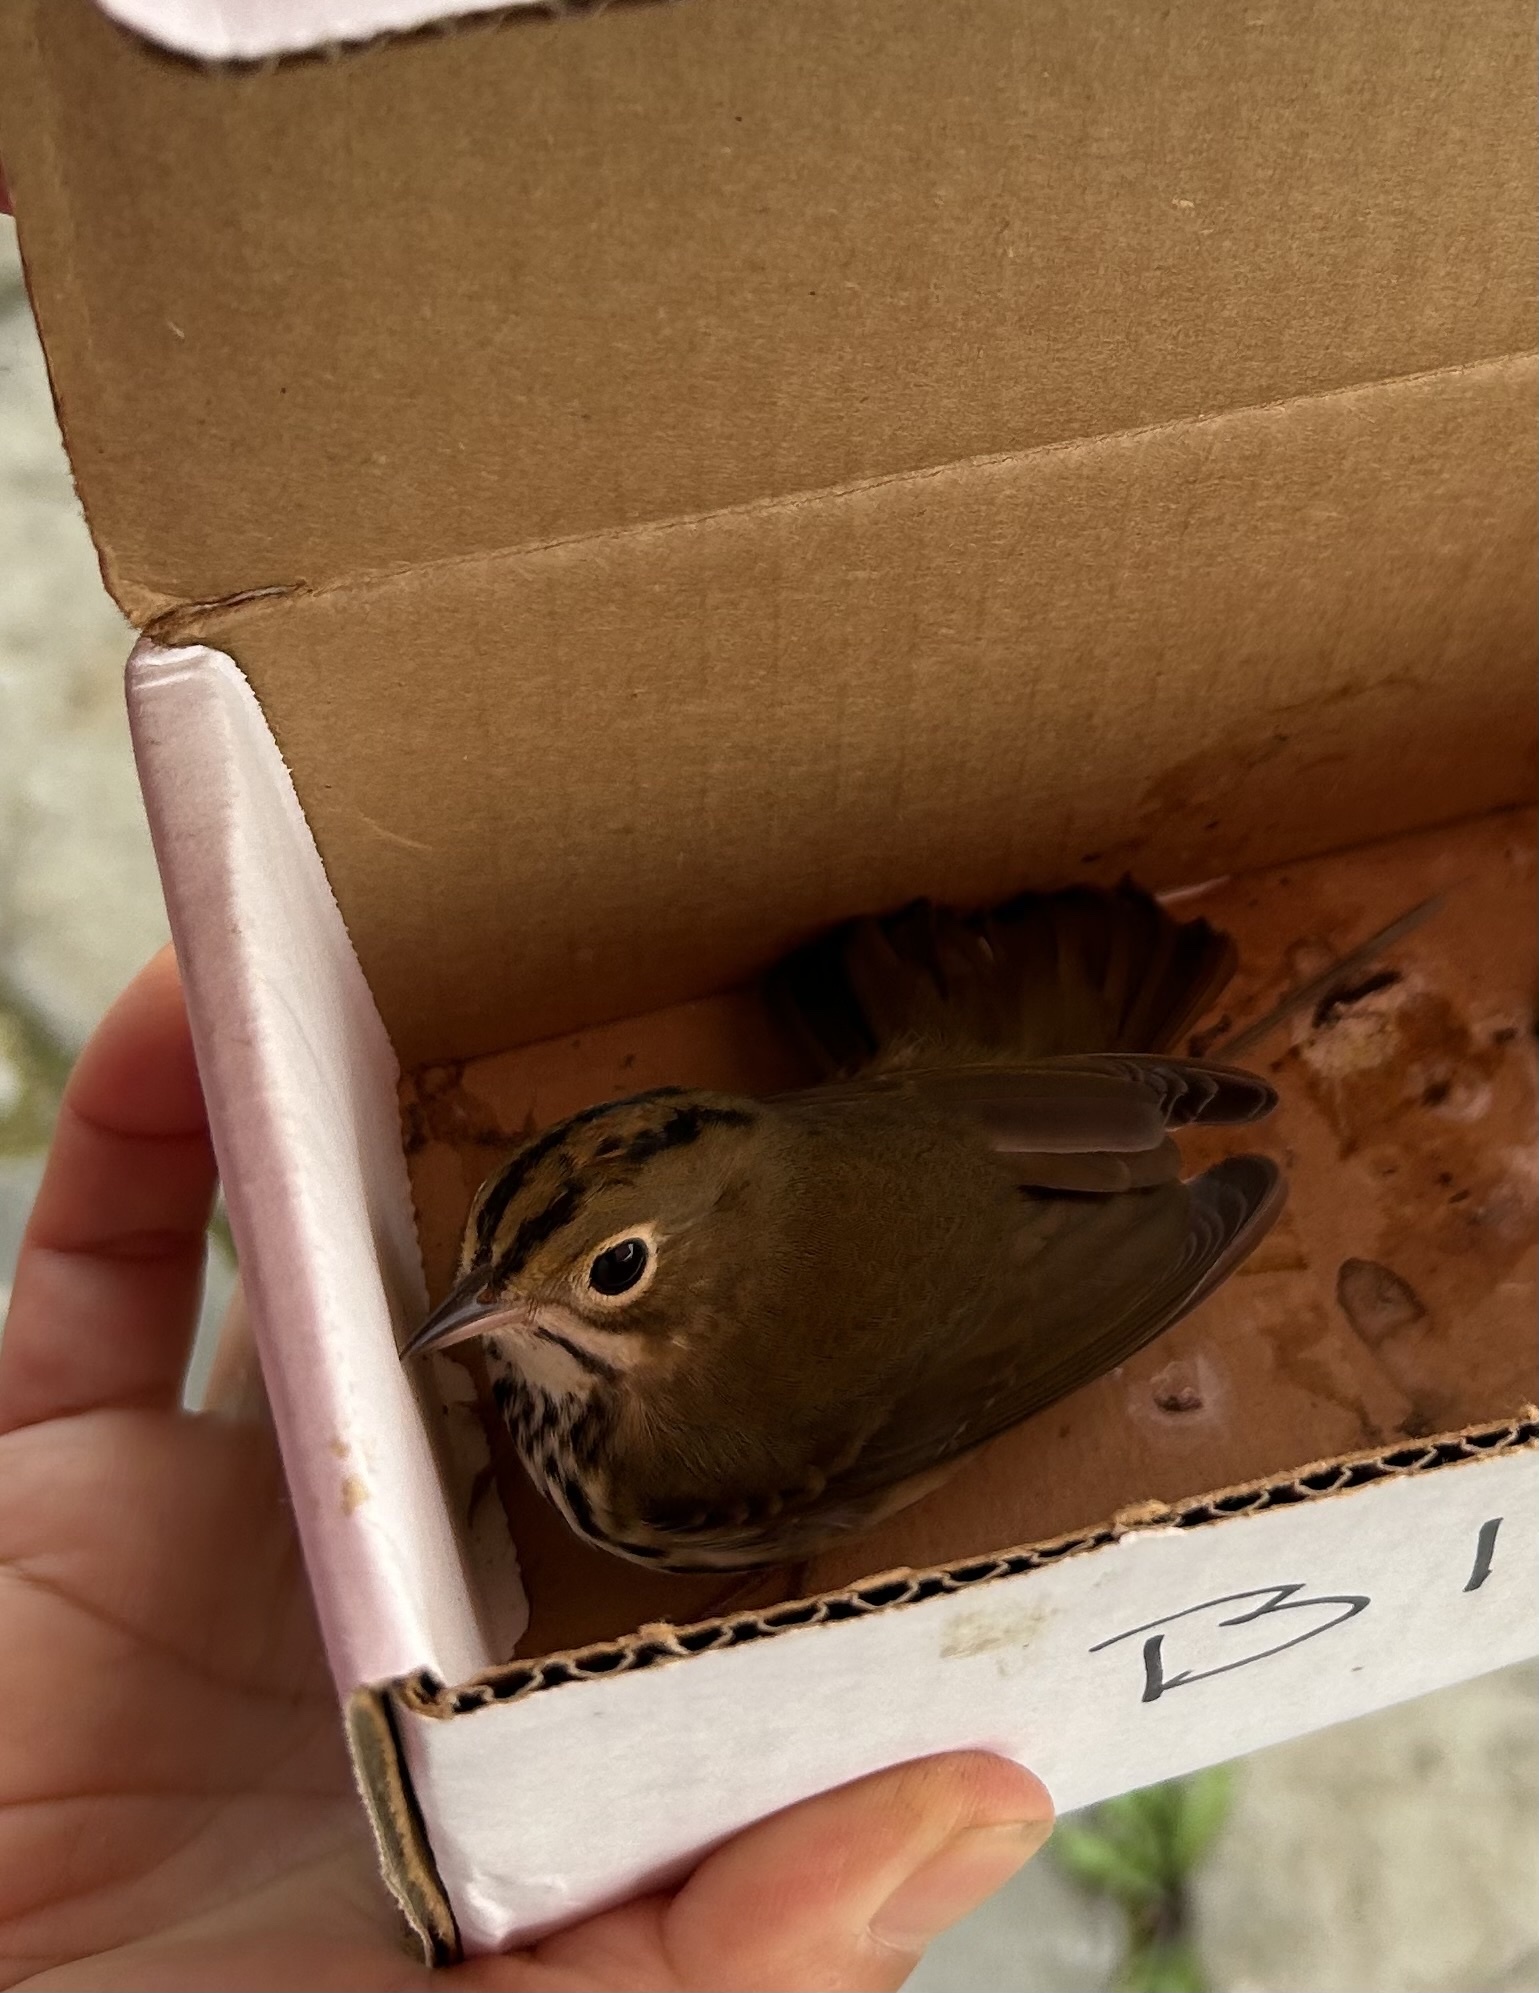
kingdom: Animalia
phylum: Chordata
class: Aves
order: Passeriformes
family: Parulidae
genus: Seiurus
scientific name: Seiurus aurocapilla
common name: Ovenbird
